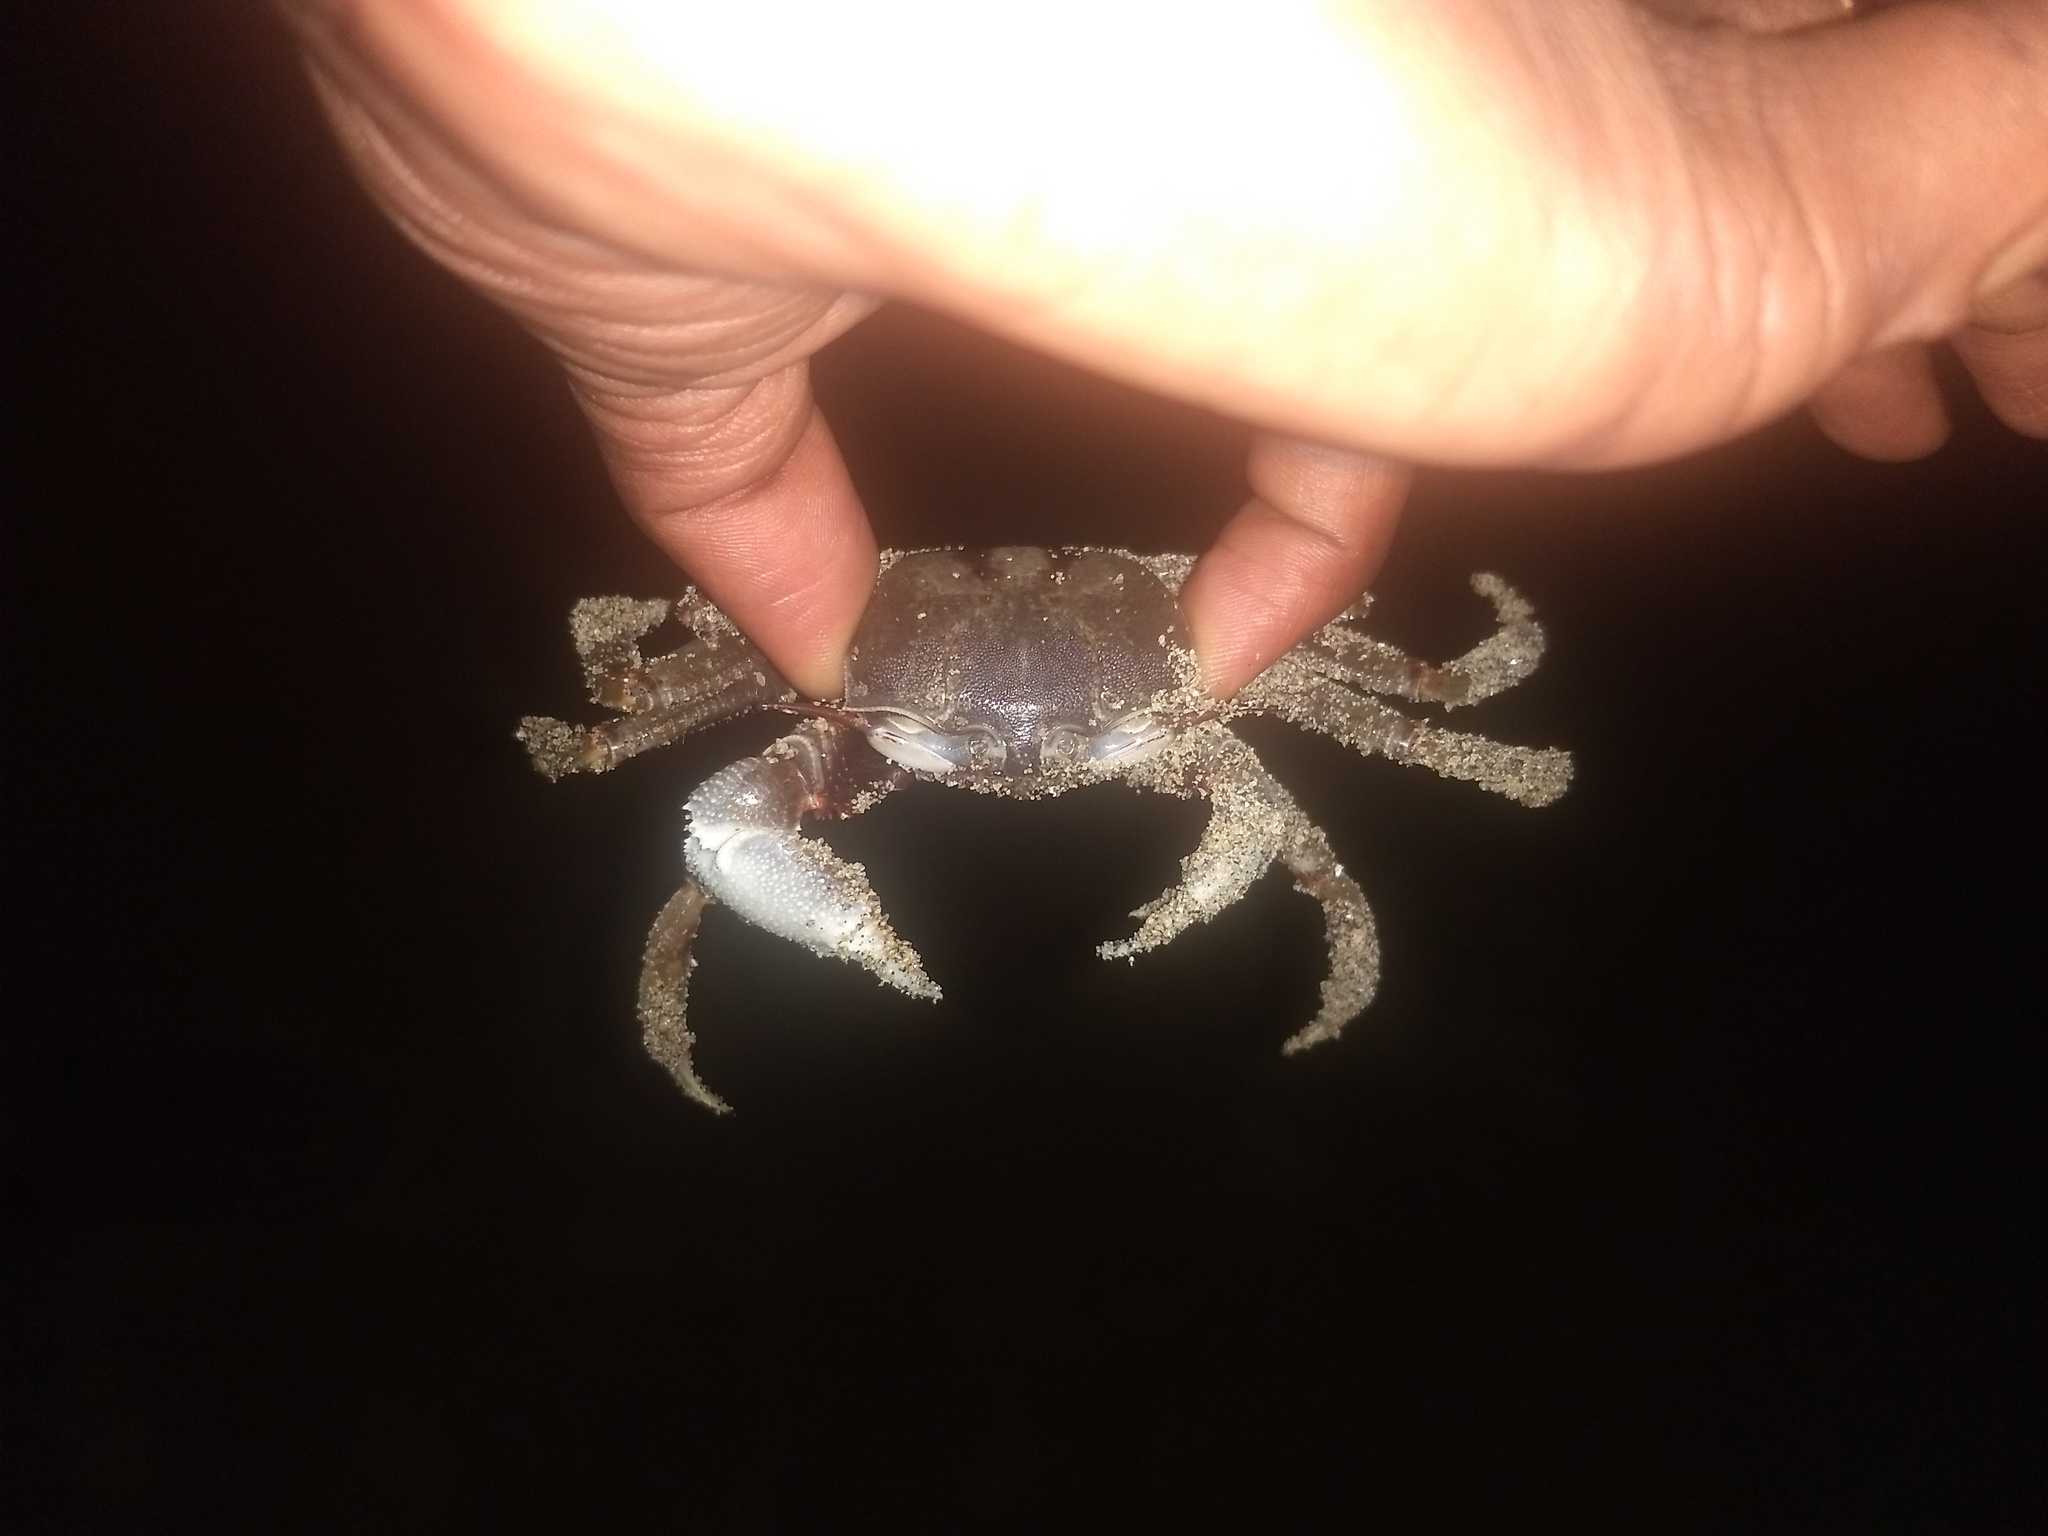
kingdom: Animalia
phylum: Arthropoda
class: Malacostraca
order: Decapoda
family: Ocypodidae
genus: Ocypode
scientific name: Ocypode ceratophthalmus
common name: Indo-pacific ghost crab
